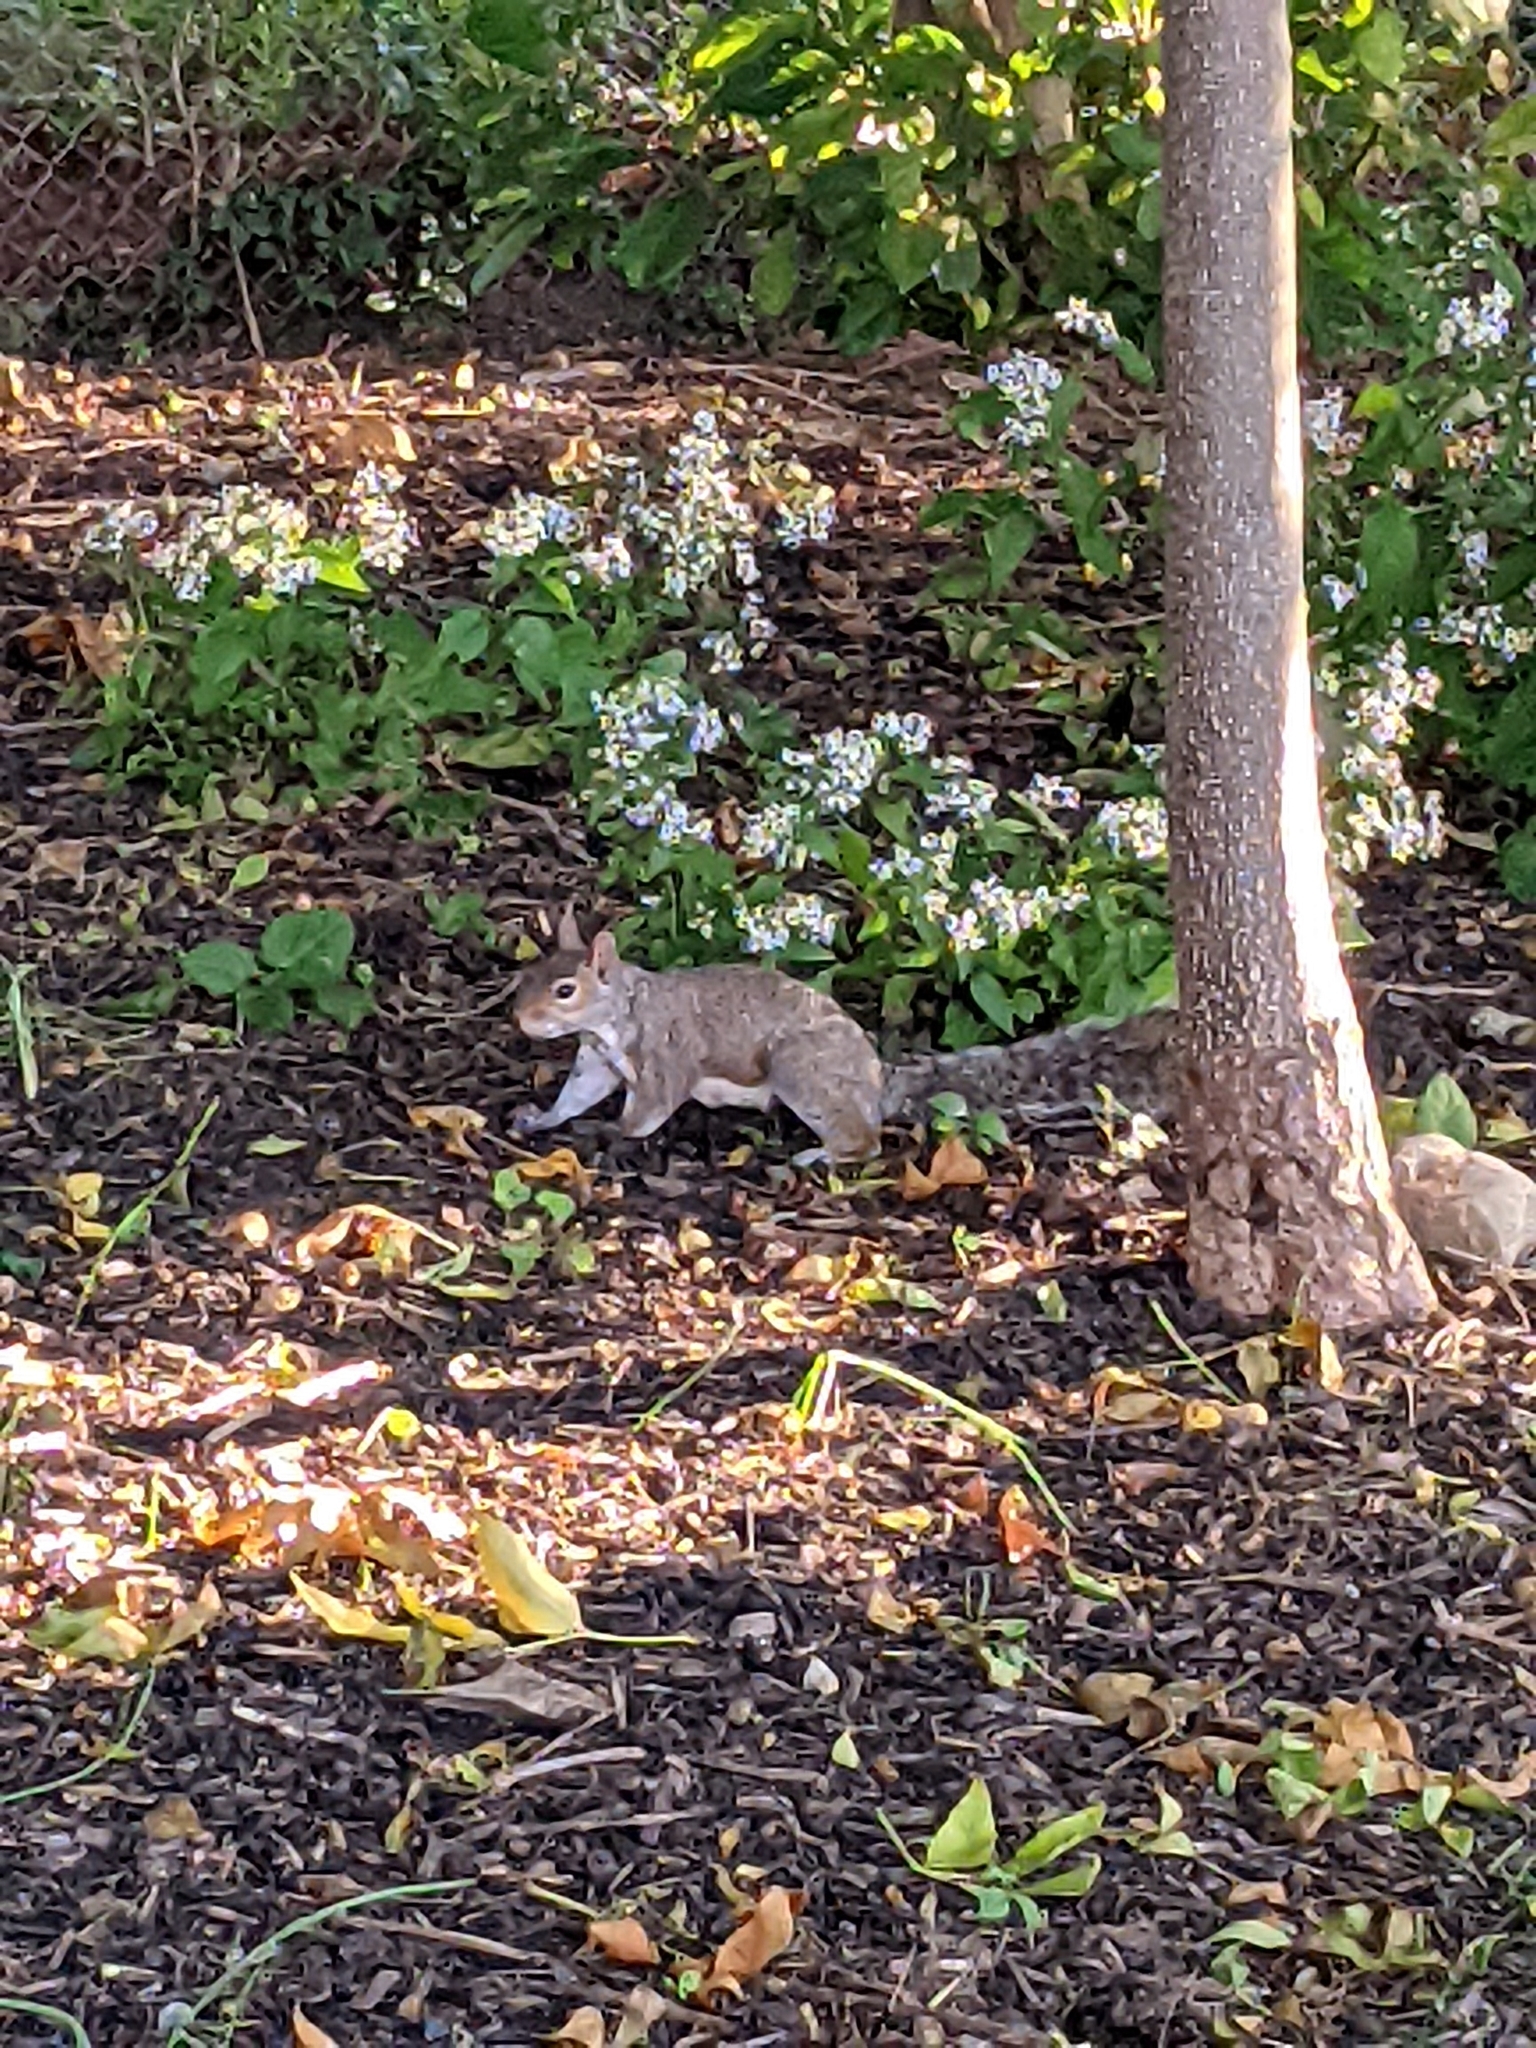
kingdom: Animalia
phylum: Chordata
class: Mammalia
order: Rodentia
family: Sciuridae
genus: Sciurus
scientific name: Sciurus carolinensis
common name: Eastern gray squirrel
